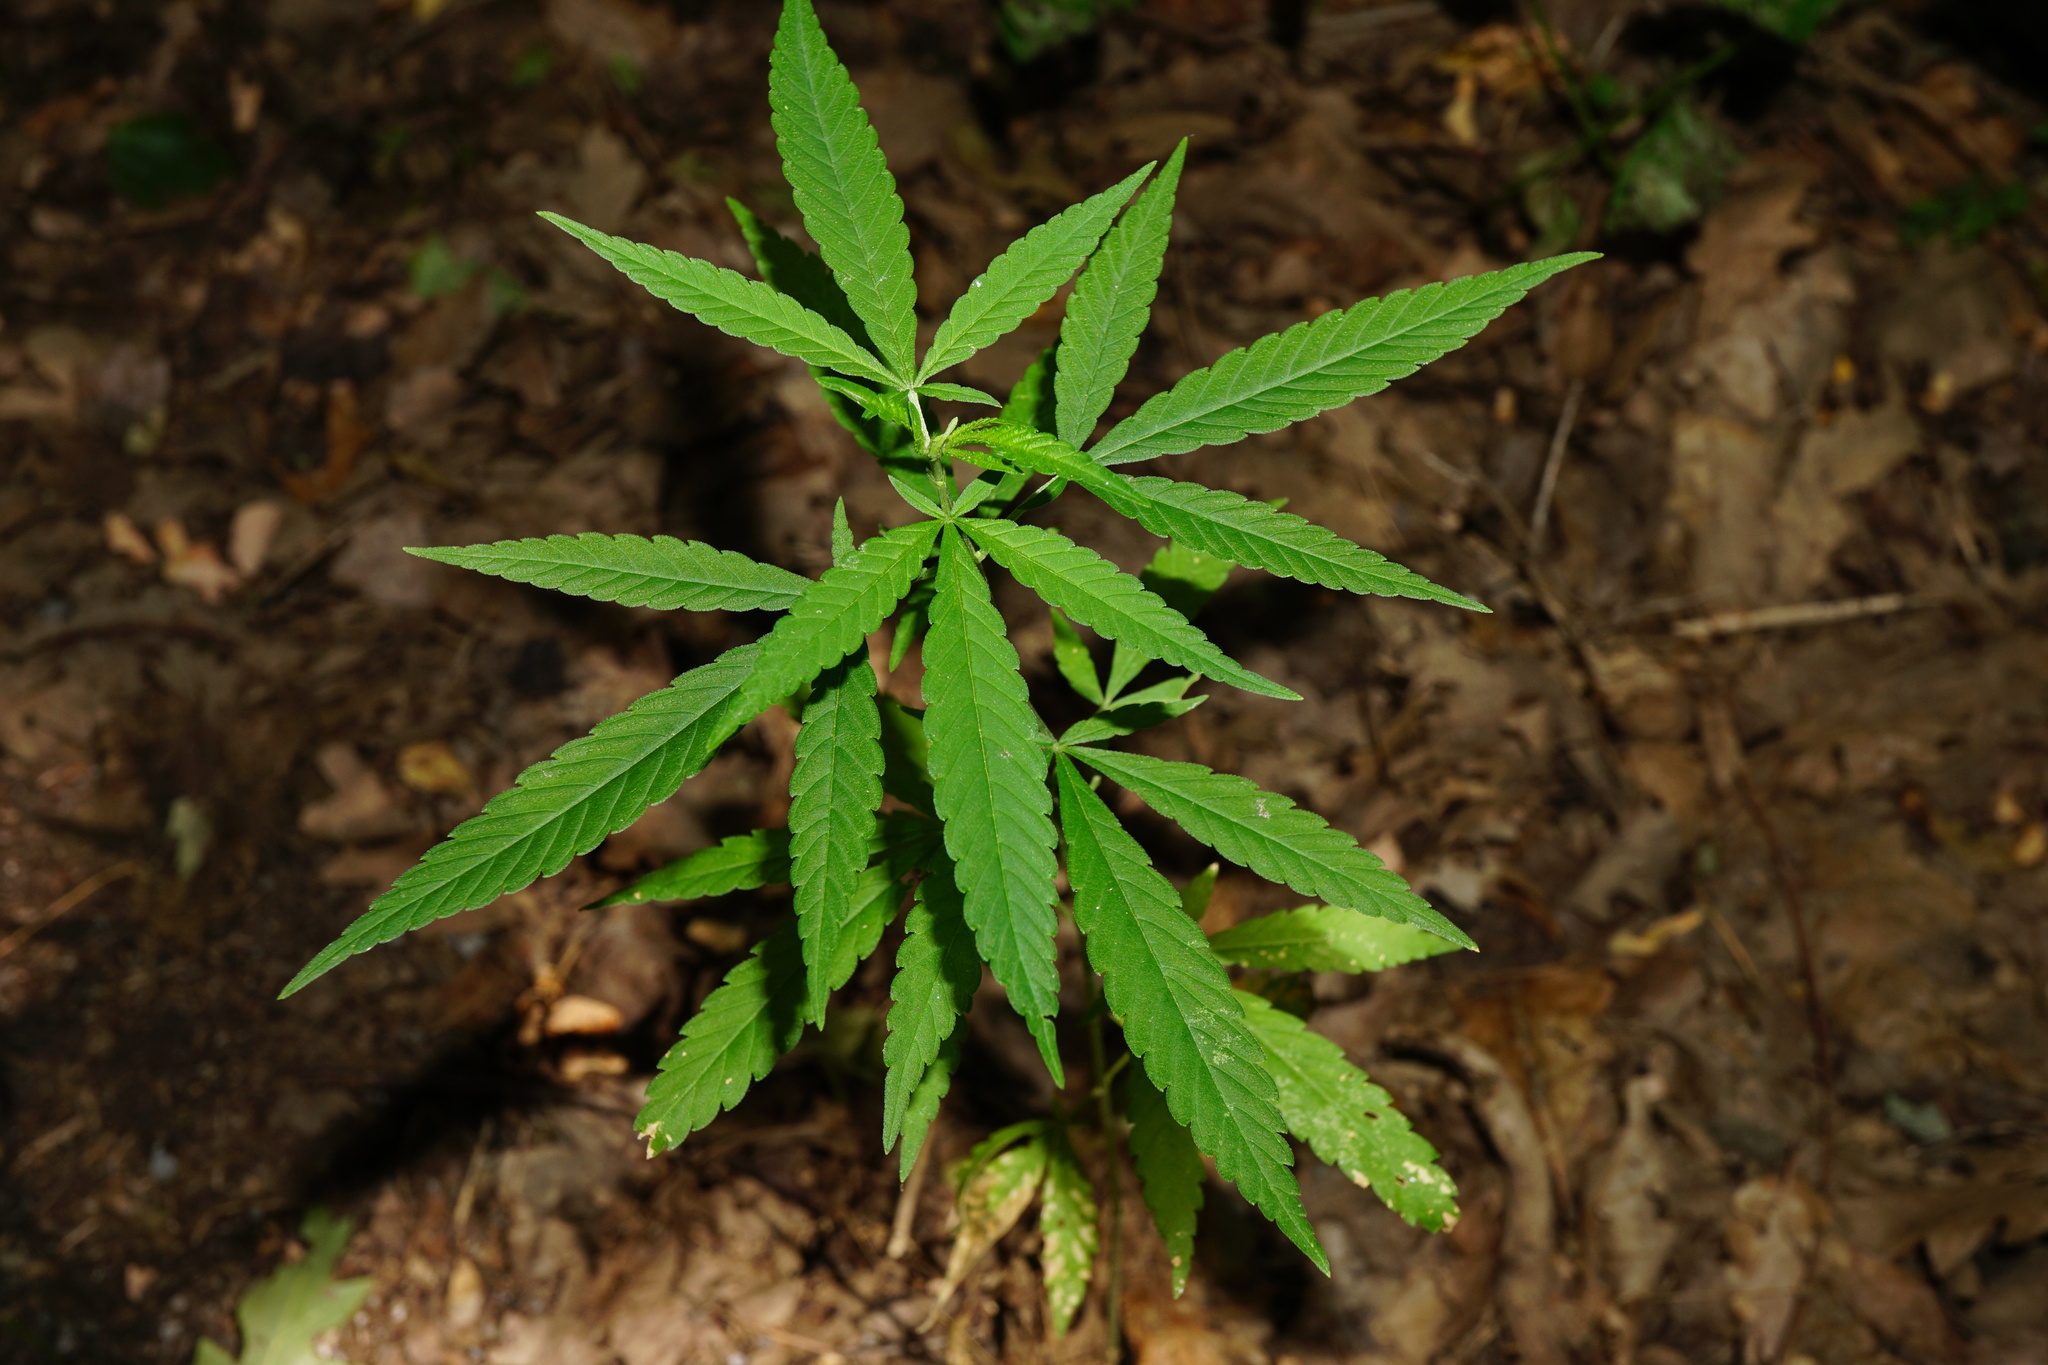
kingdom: Plantae
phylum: Tracheophyta
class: Magnoliopsida
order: Rosales
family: Cannabaceae
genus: Cannabis
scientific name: Cannabis sativa
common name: Hemp
